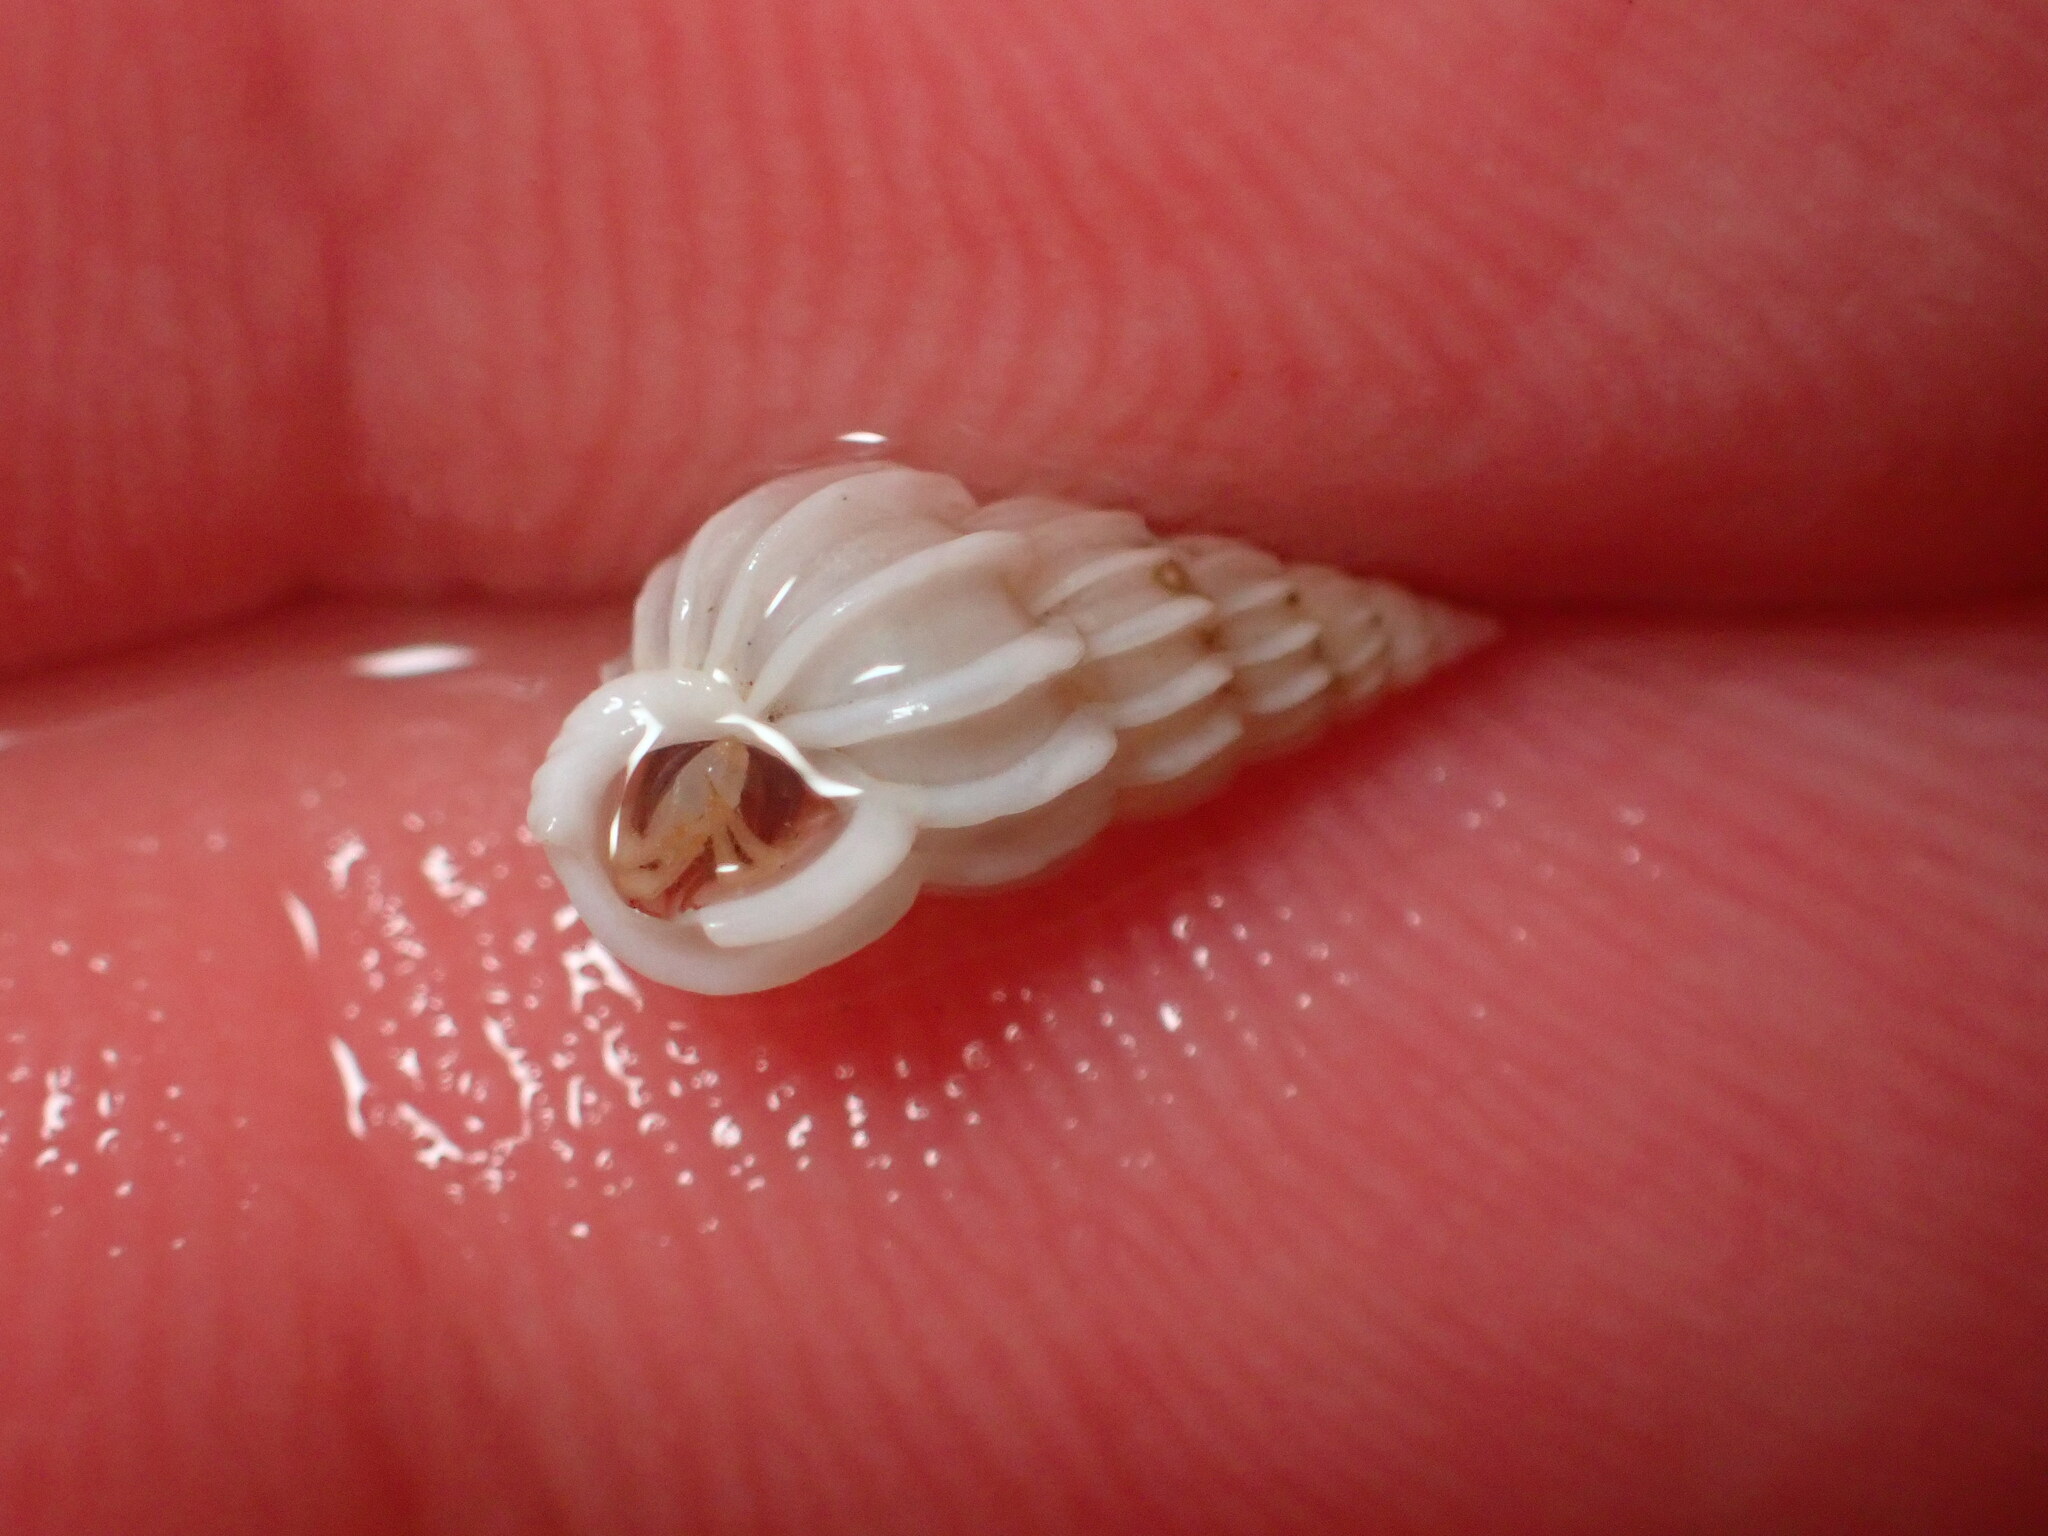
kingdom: Animalia
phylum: Mollusca
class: Gastropoda
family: Epitoniidae
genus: Epitonium
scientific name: Epitonium tinctum
